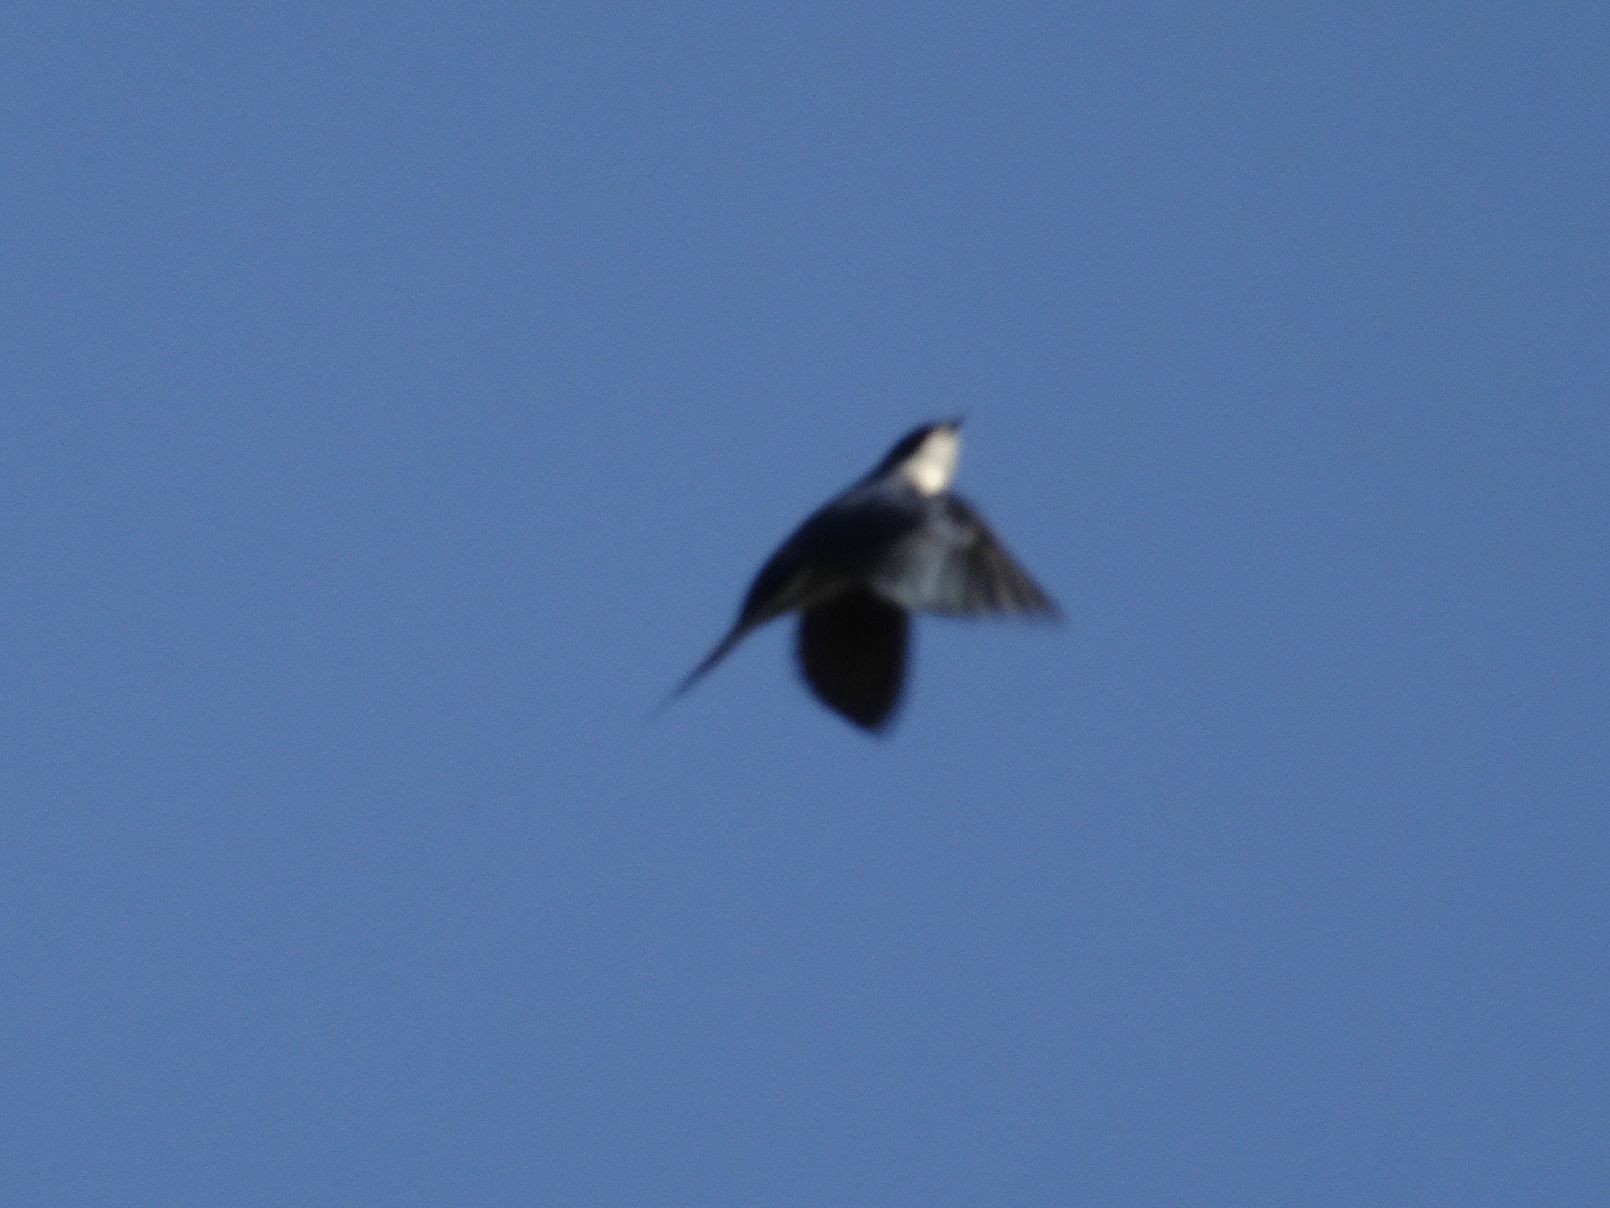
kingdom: Animalia
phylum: Chordata
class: Aves
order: Passeriformes
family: Hirundinidae
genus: Hirundo
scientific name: Hirundo dimidiata
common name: Pearl-breasted swallow
